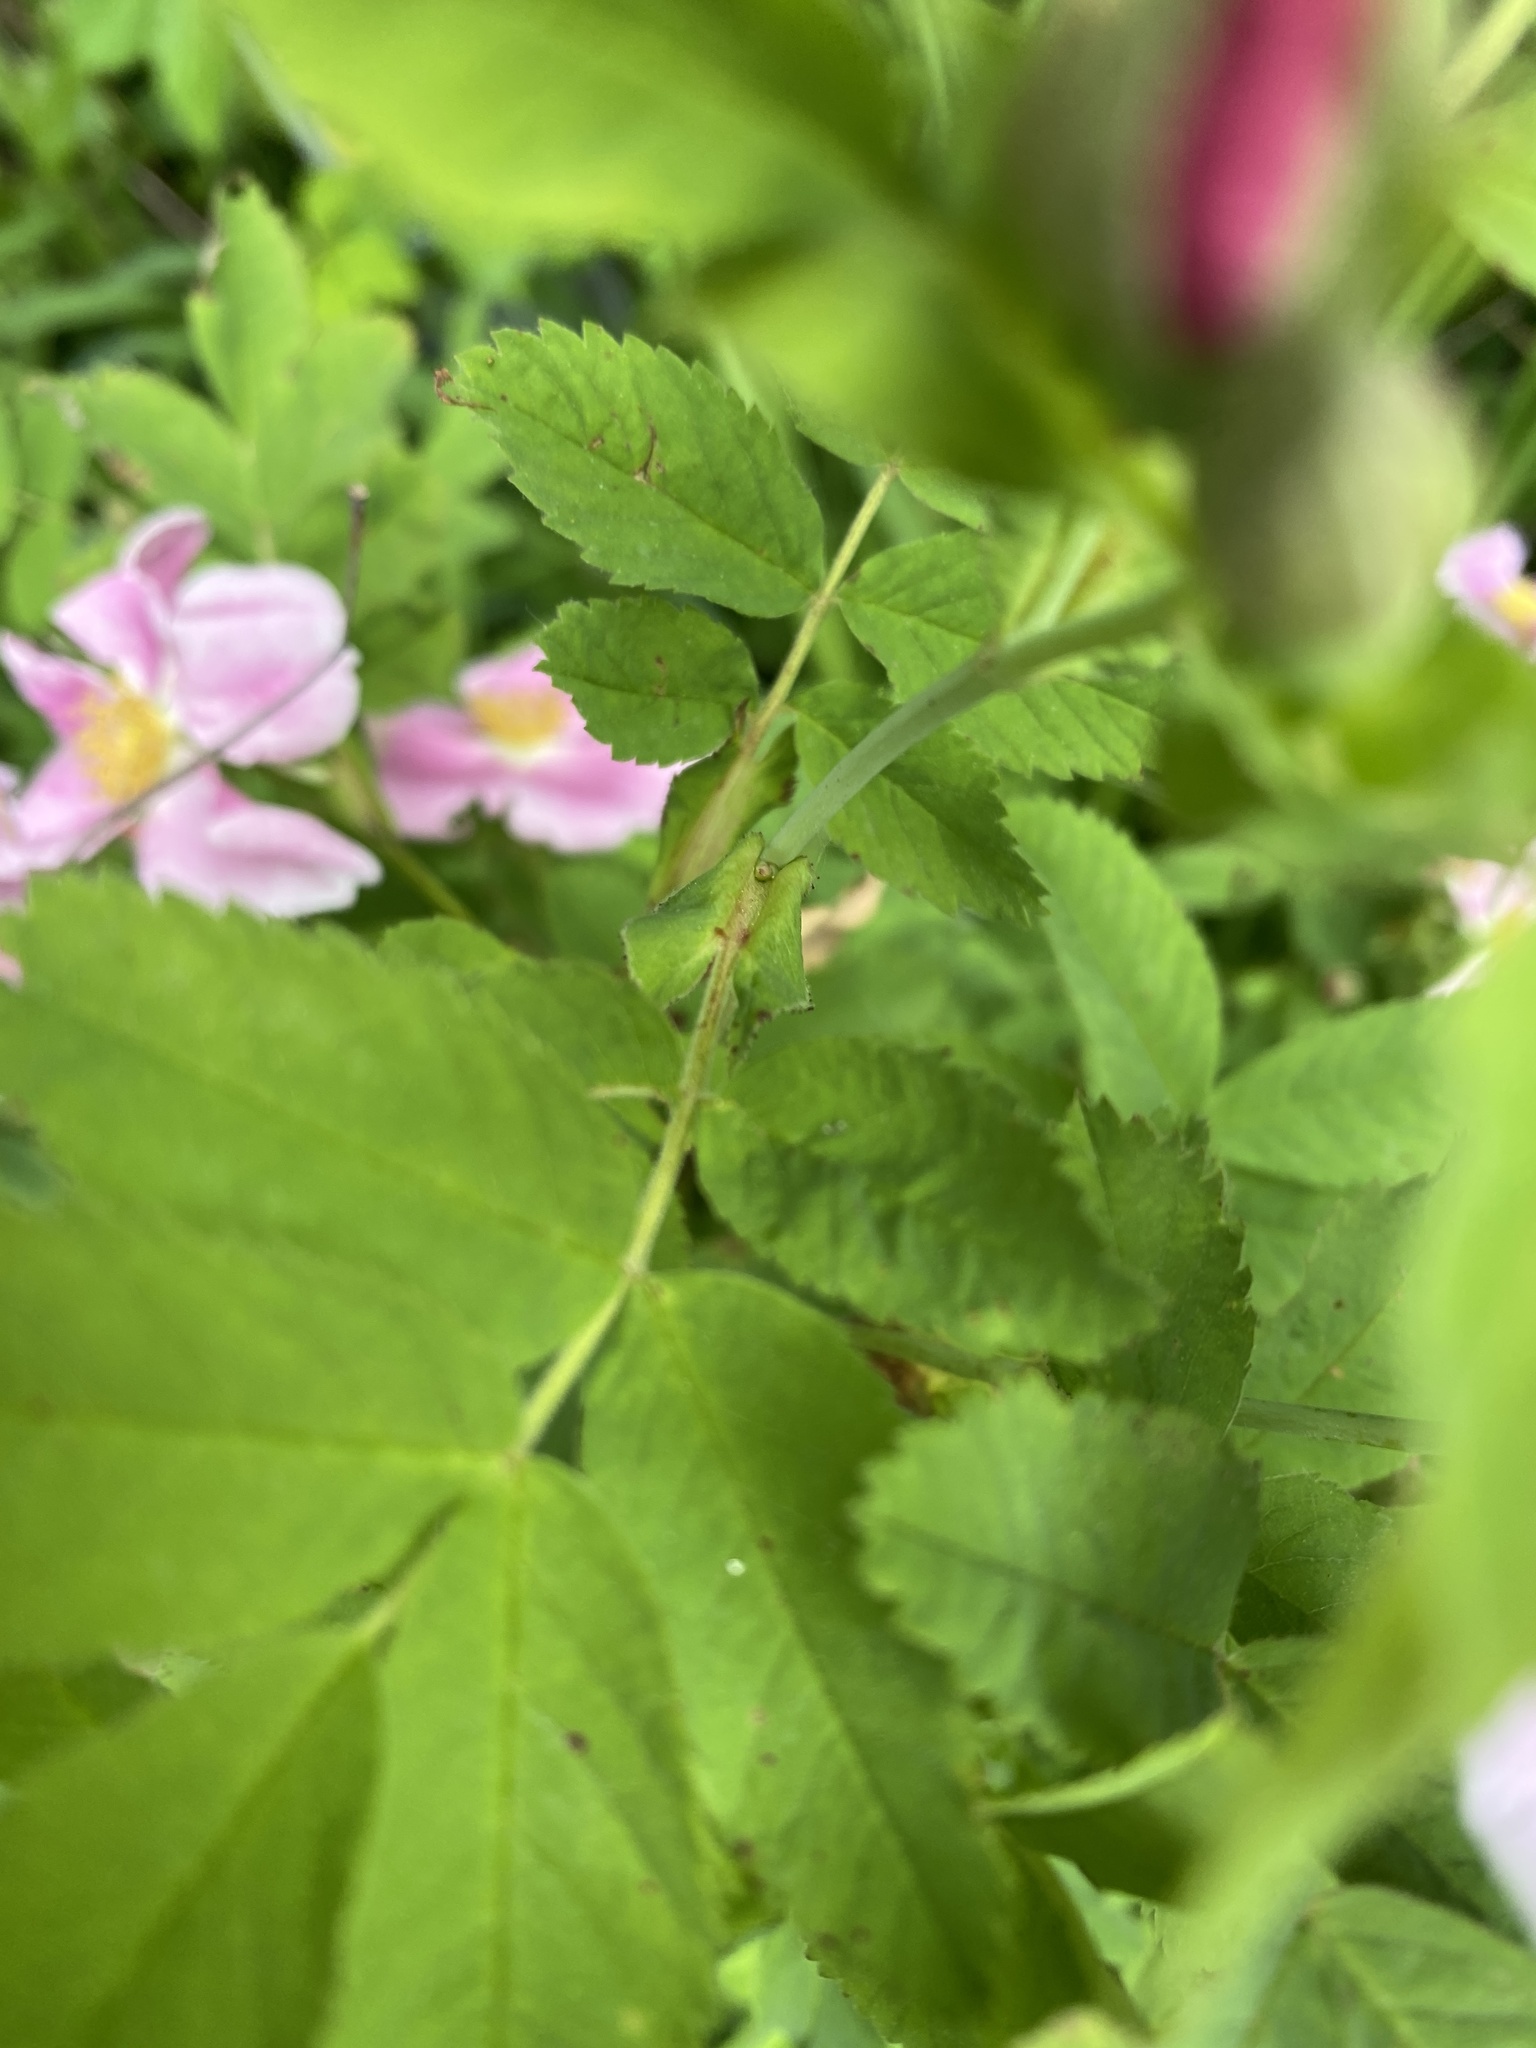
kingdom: Plantae
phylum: Tracheophyta
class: Magnoliopsida
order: Rosales
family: Rosaceae
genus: Rosa
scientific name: Rosa palustris
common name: Swamp rose
